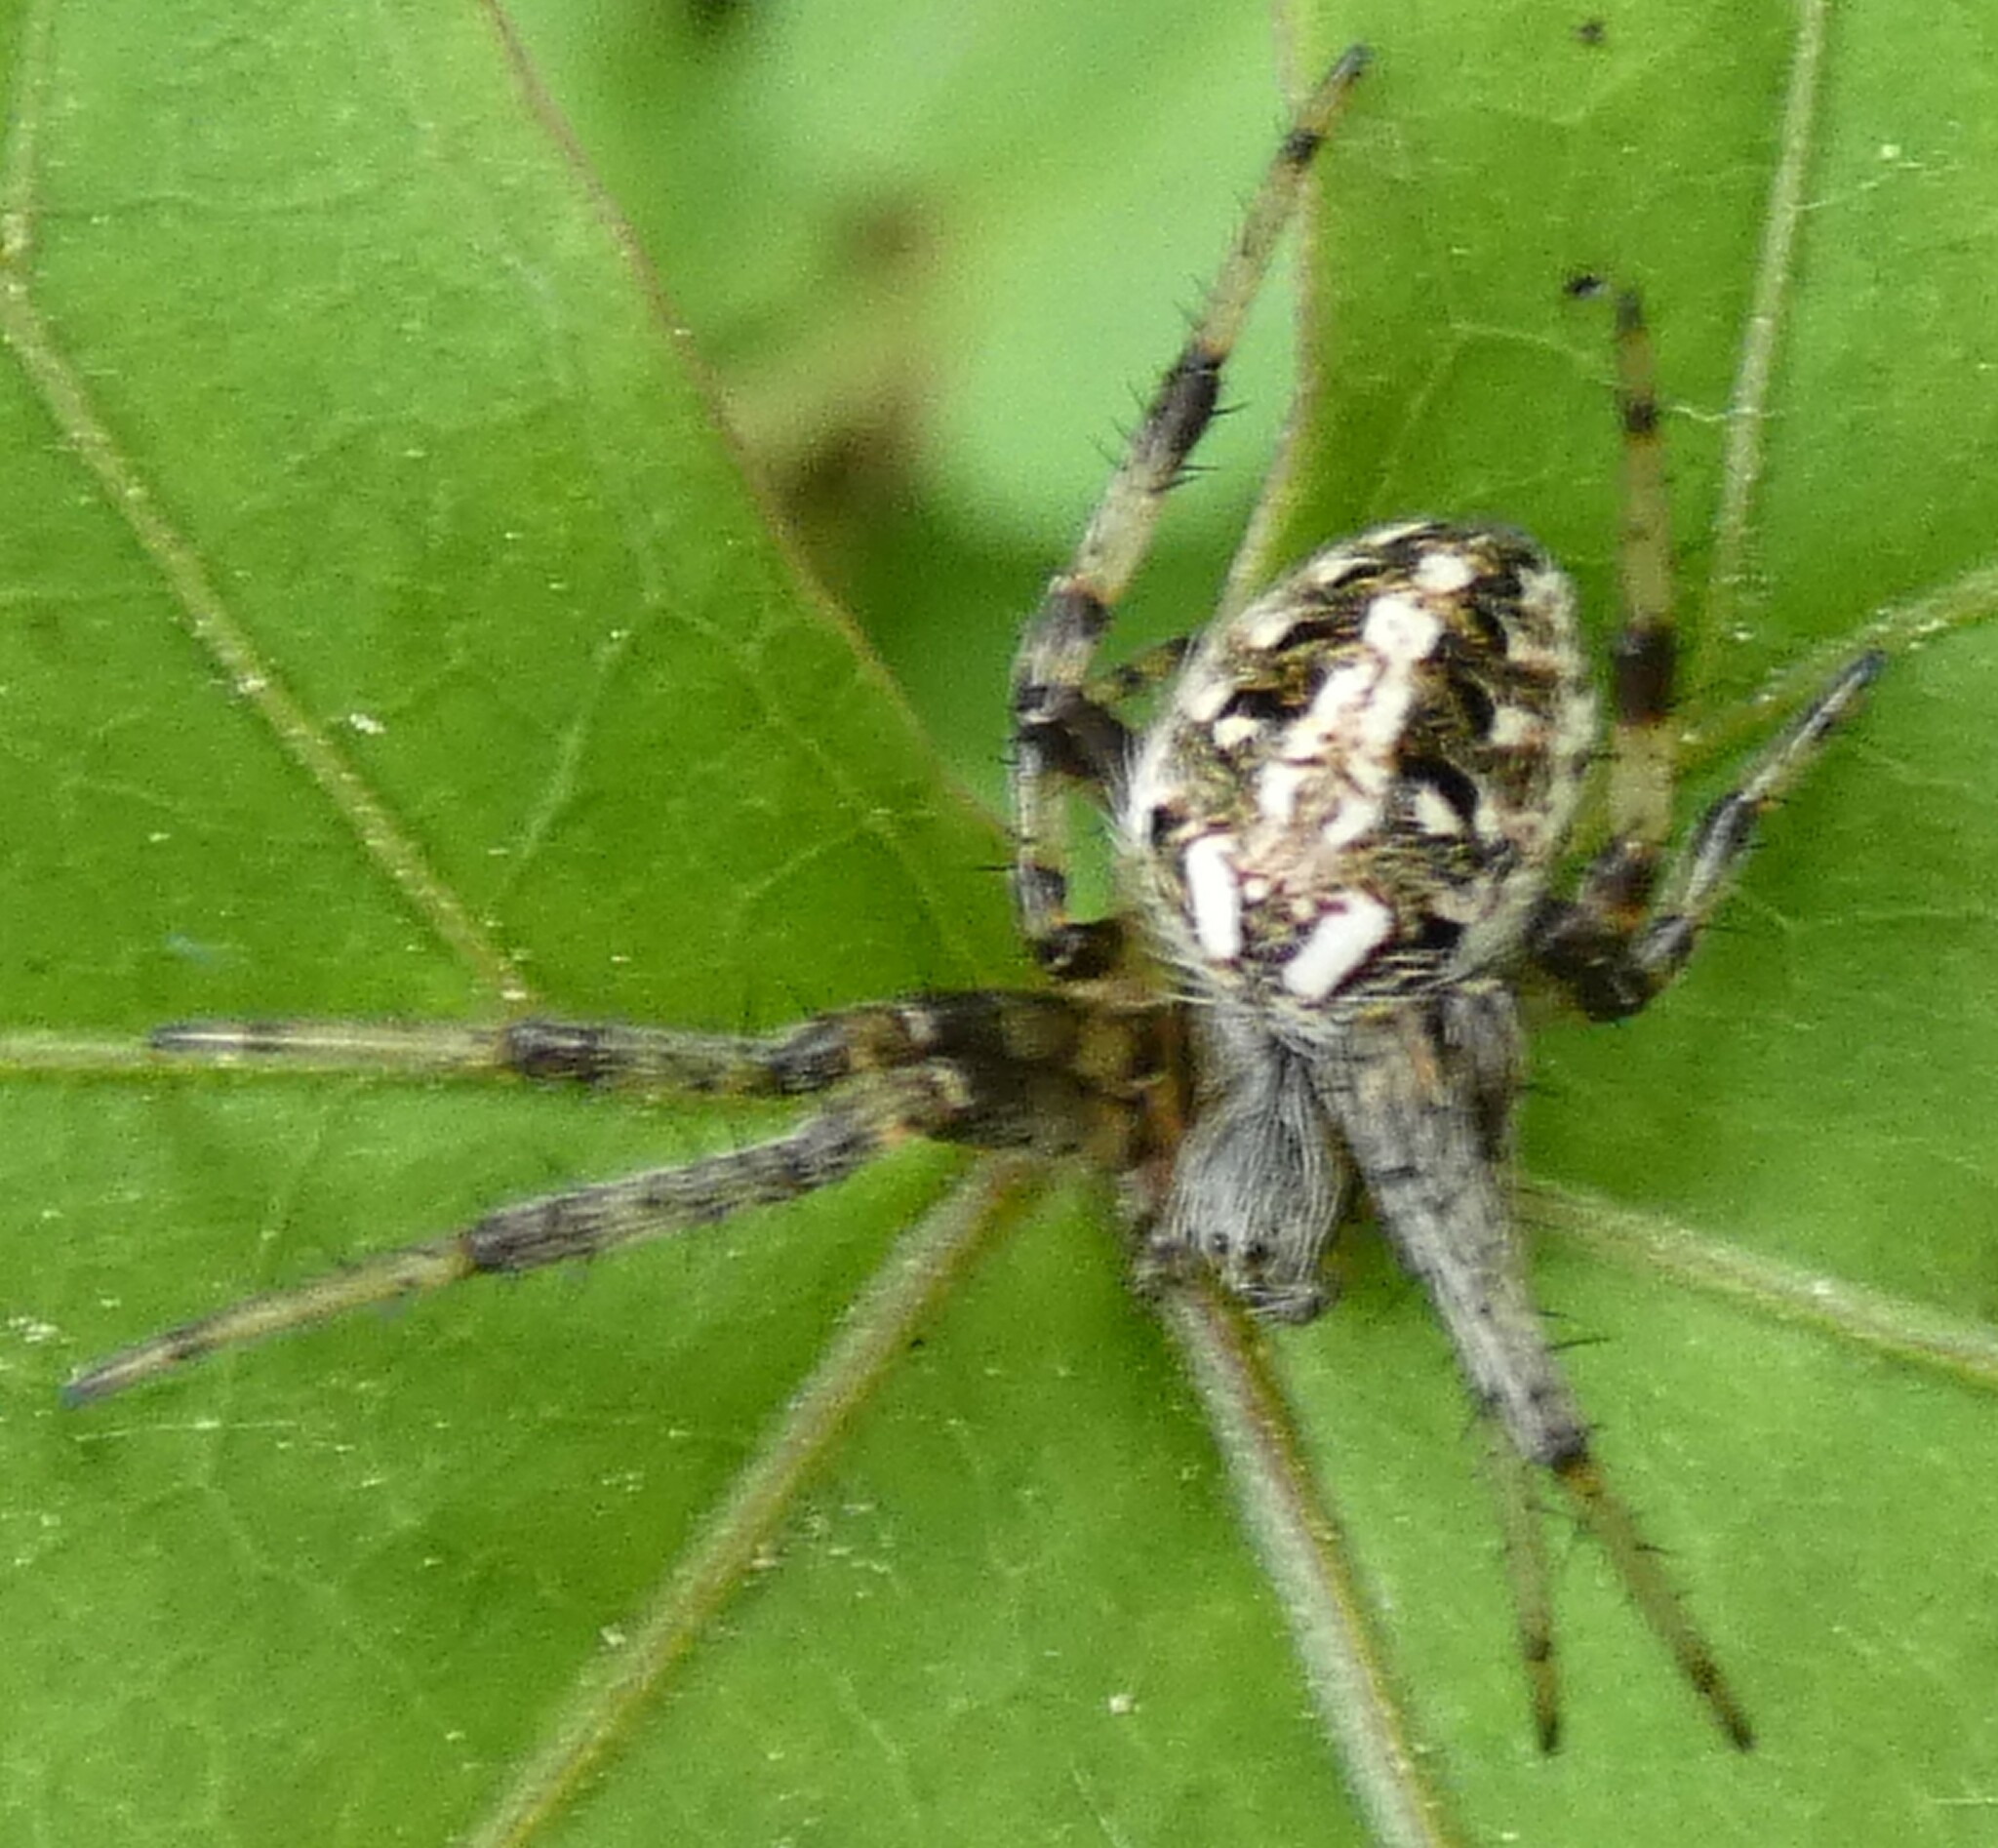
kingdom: Animalia
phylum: Arthropoda
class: Arachnida
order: Araneae
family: Araneidae
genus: Neoscona
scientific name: Neoscona arabesca
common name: Orb weavers
